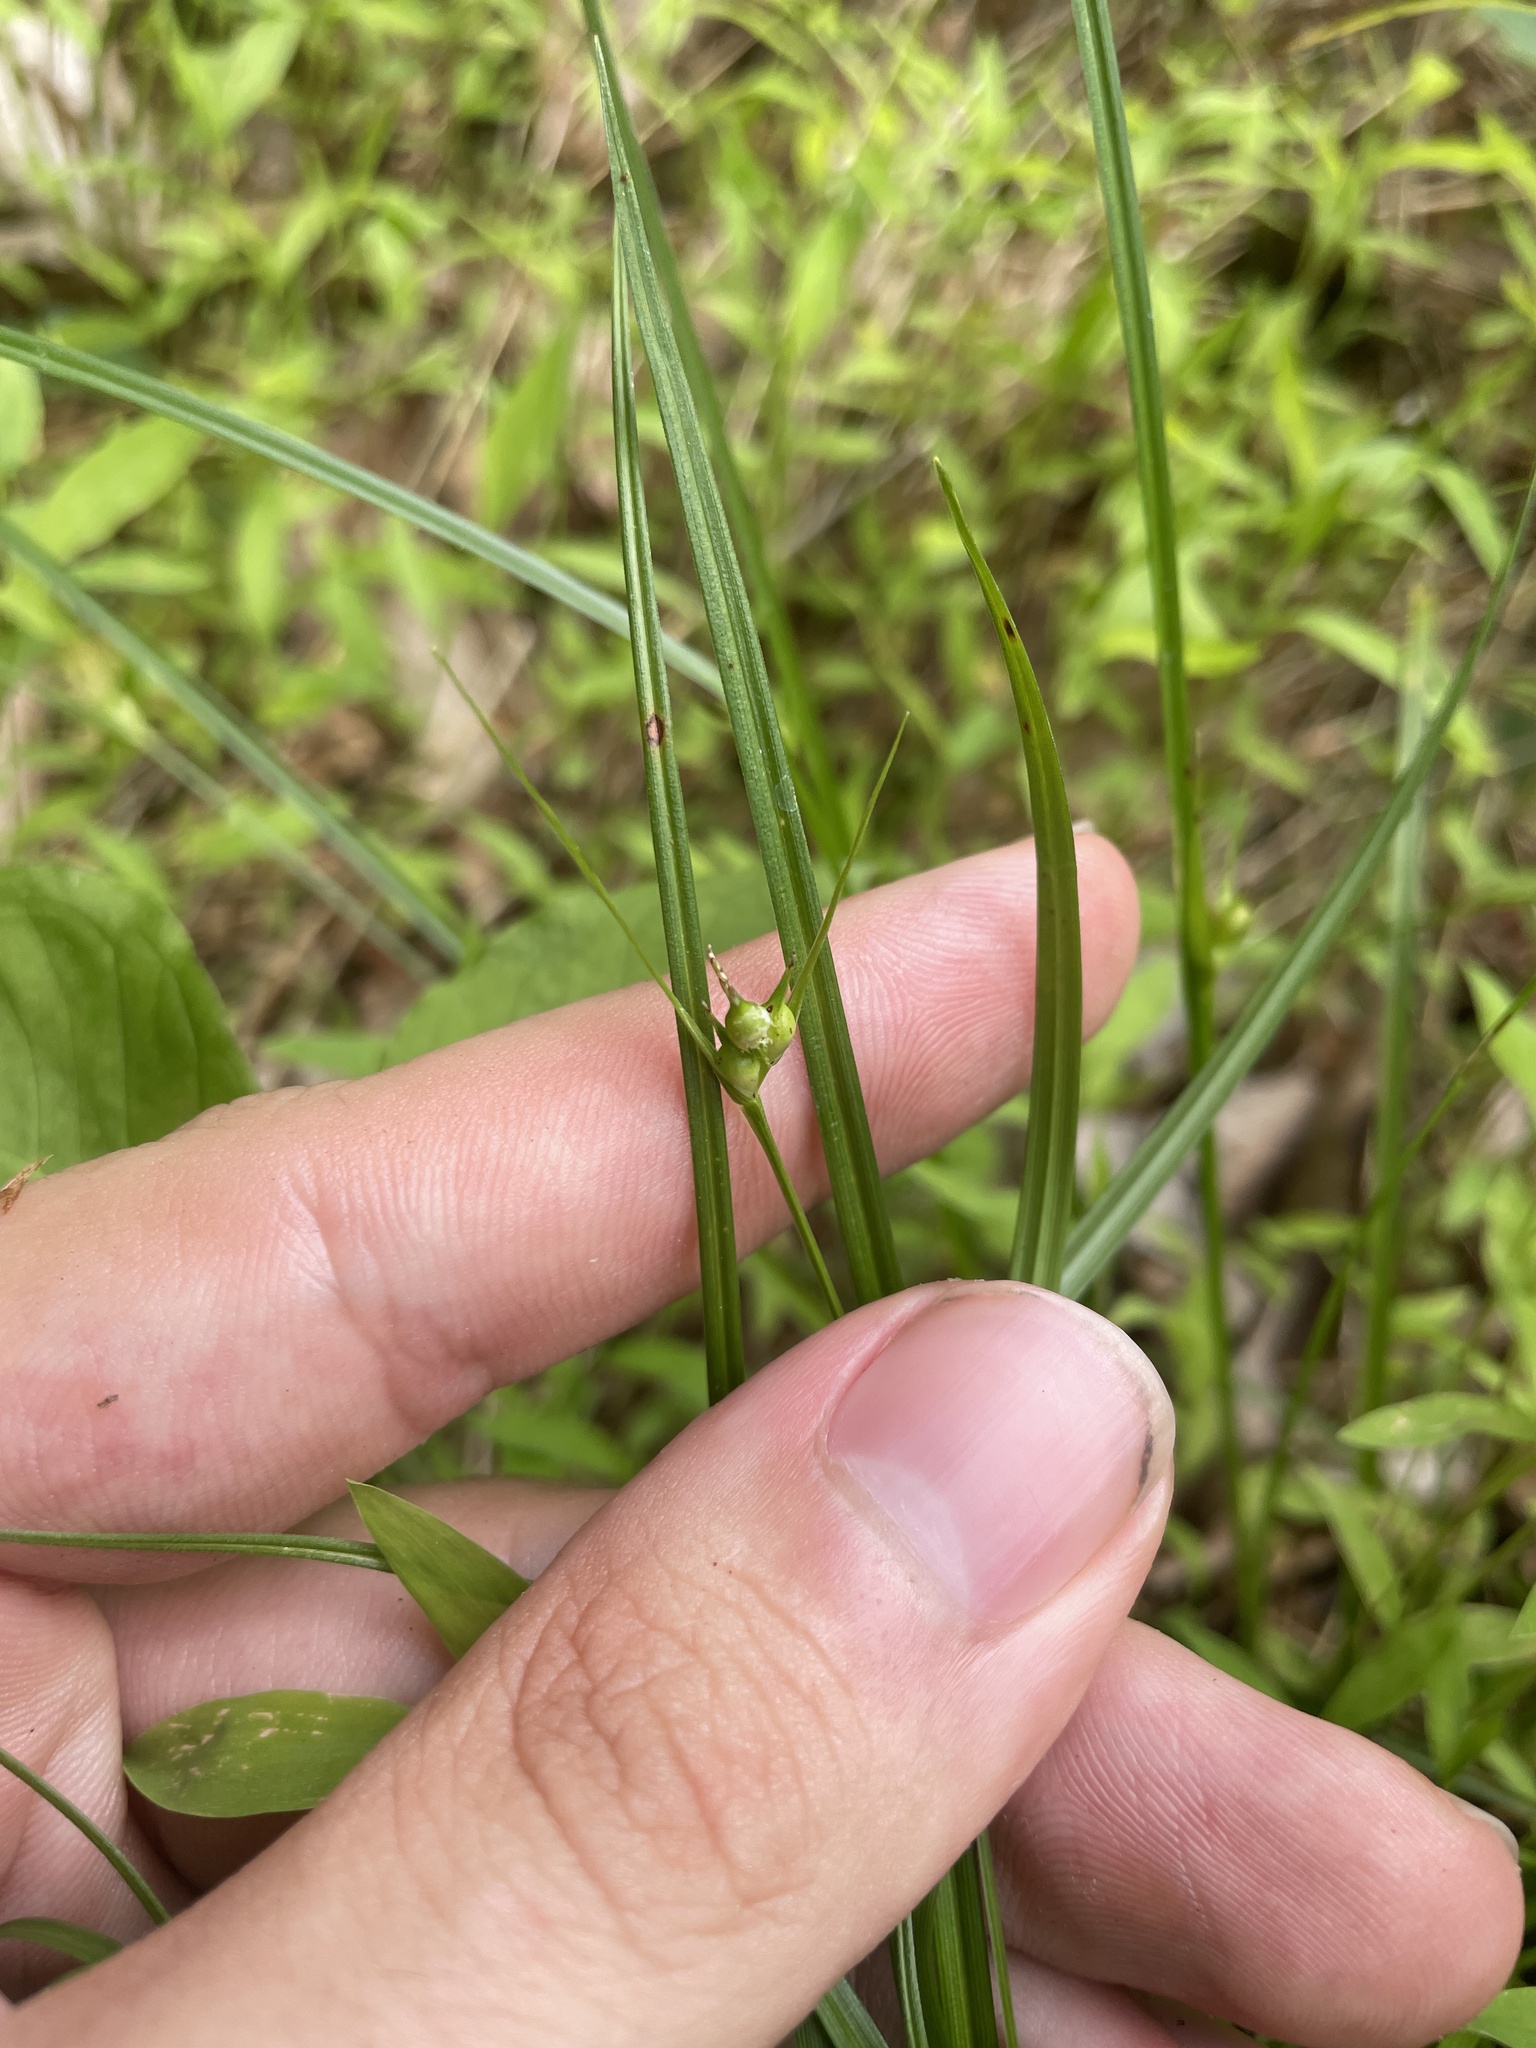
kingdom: Plantae
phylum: Tracheophyta
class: Liliopsida
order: Poales
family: Cyperaceae
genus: Carex
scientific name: Carex jamesii
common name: Grass sedge
